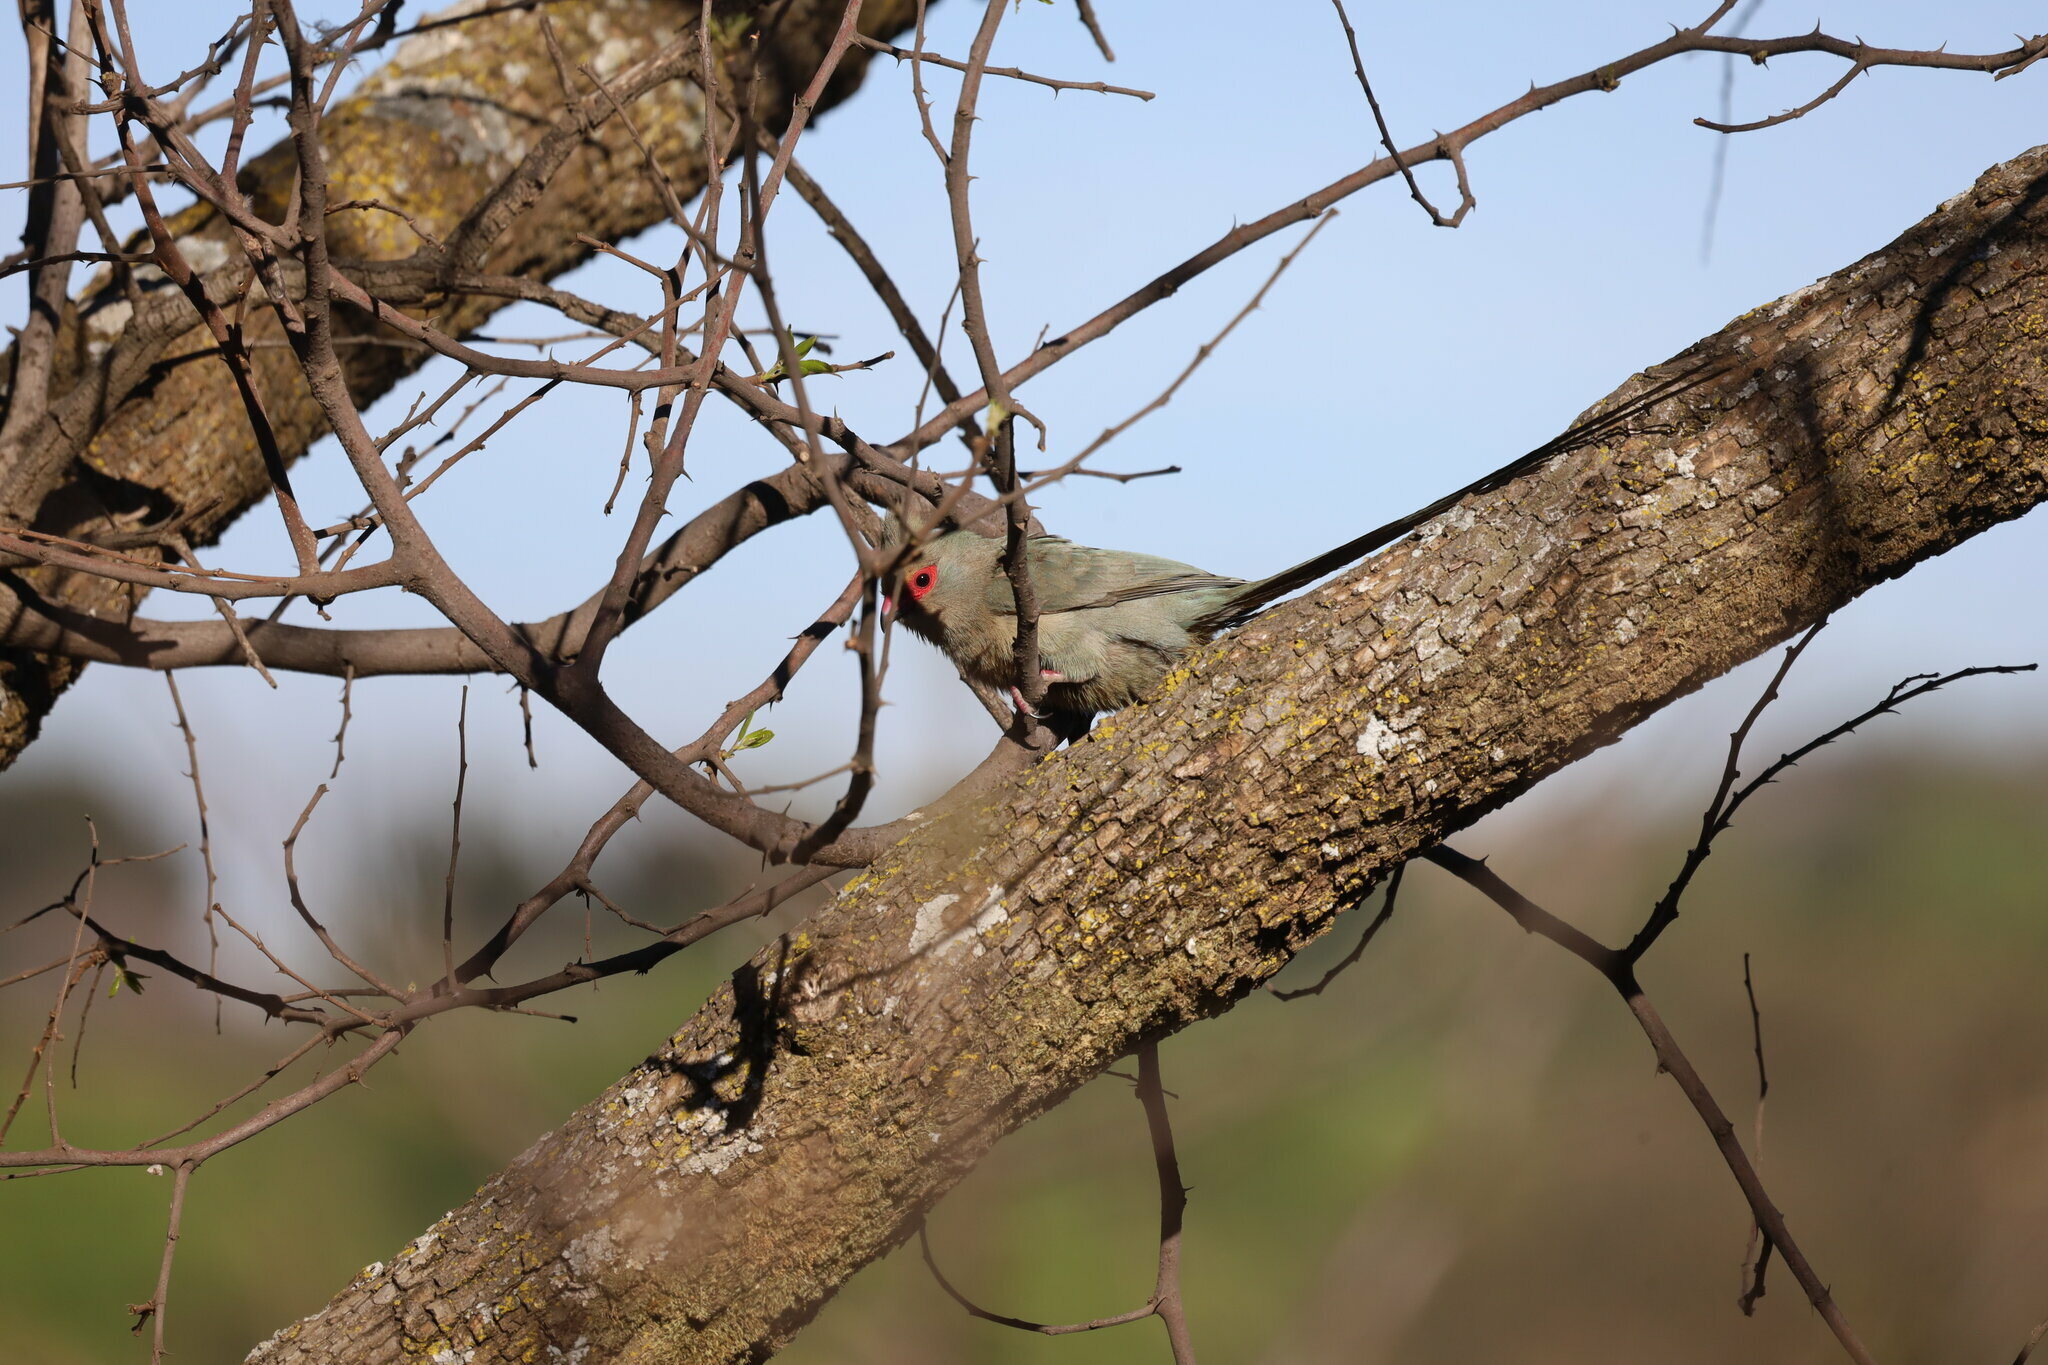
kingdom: Animalia
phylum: Chordata
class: Aves
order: Coliiformes
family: Coliidae
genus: Urocolius
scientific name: Urocolius indicus
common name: Red-faced mousebird
